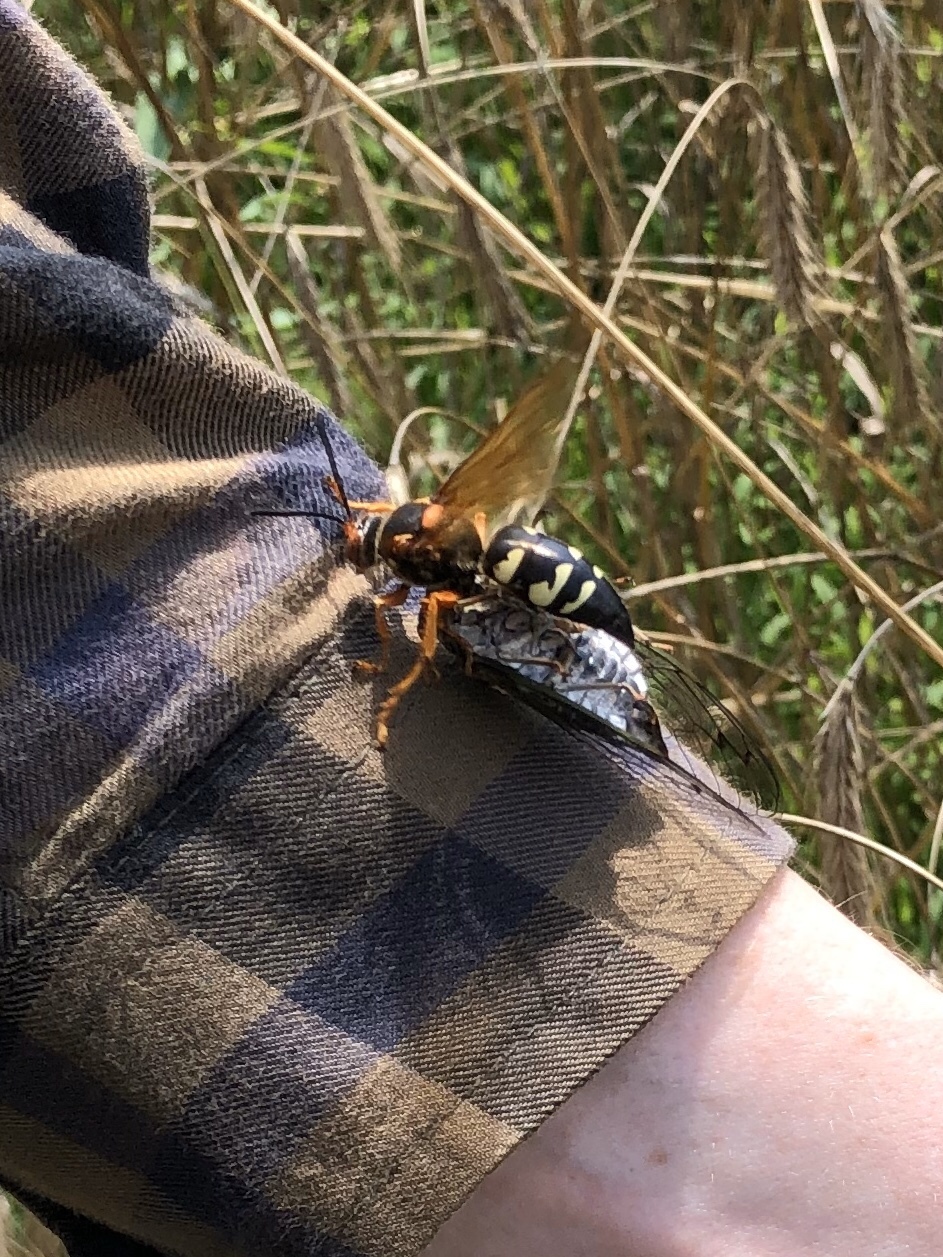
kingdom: Animalia
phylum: Arthropoda
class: Insecta
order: Hymenoptera
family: Crabronidae
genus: Sphecius
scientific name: Sphecius speciosus
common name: Cicada killer
